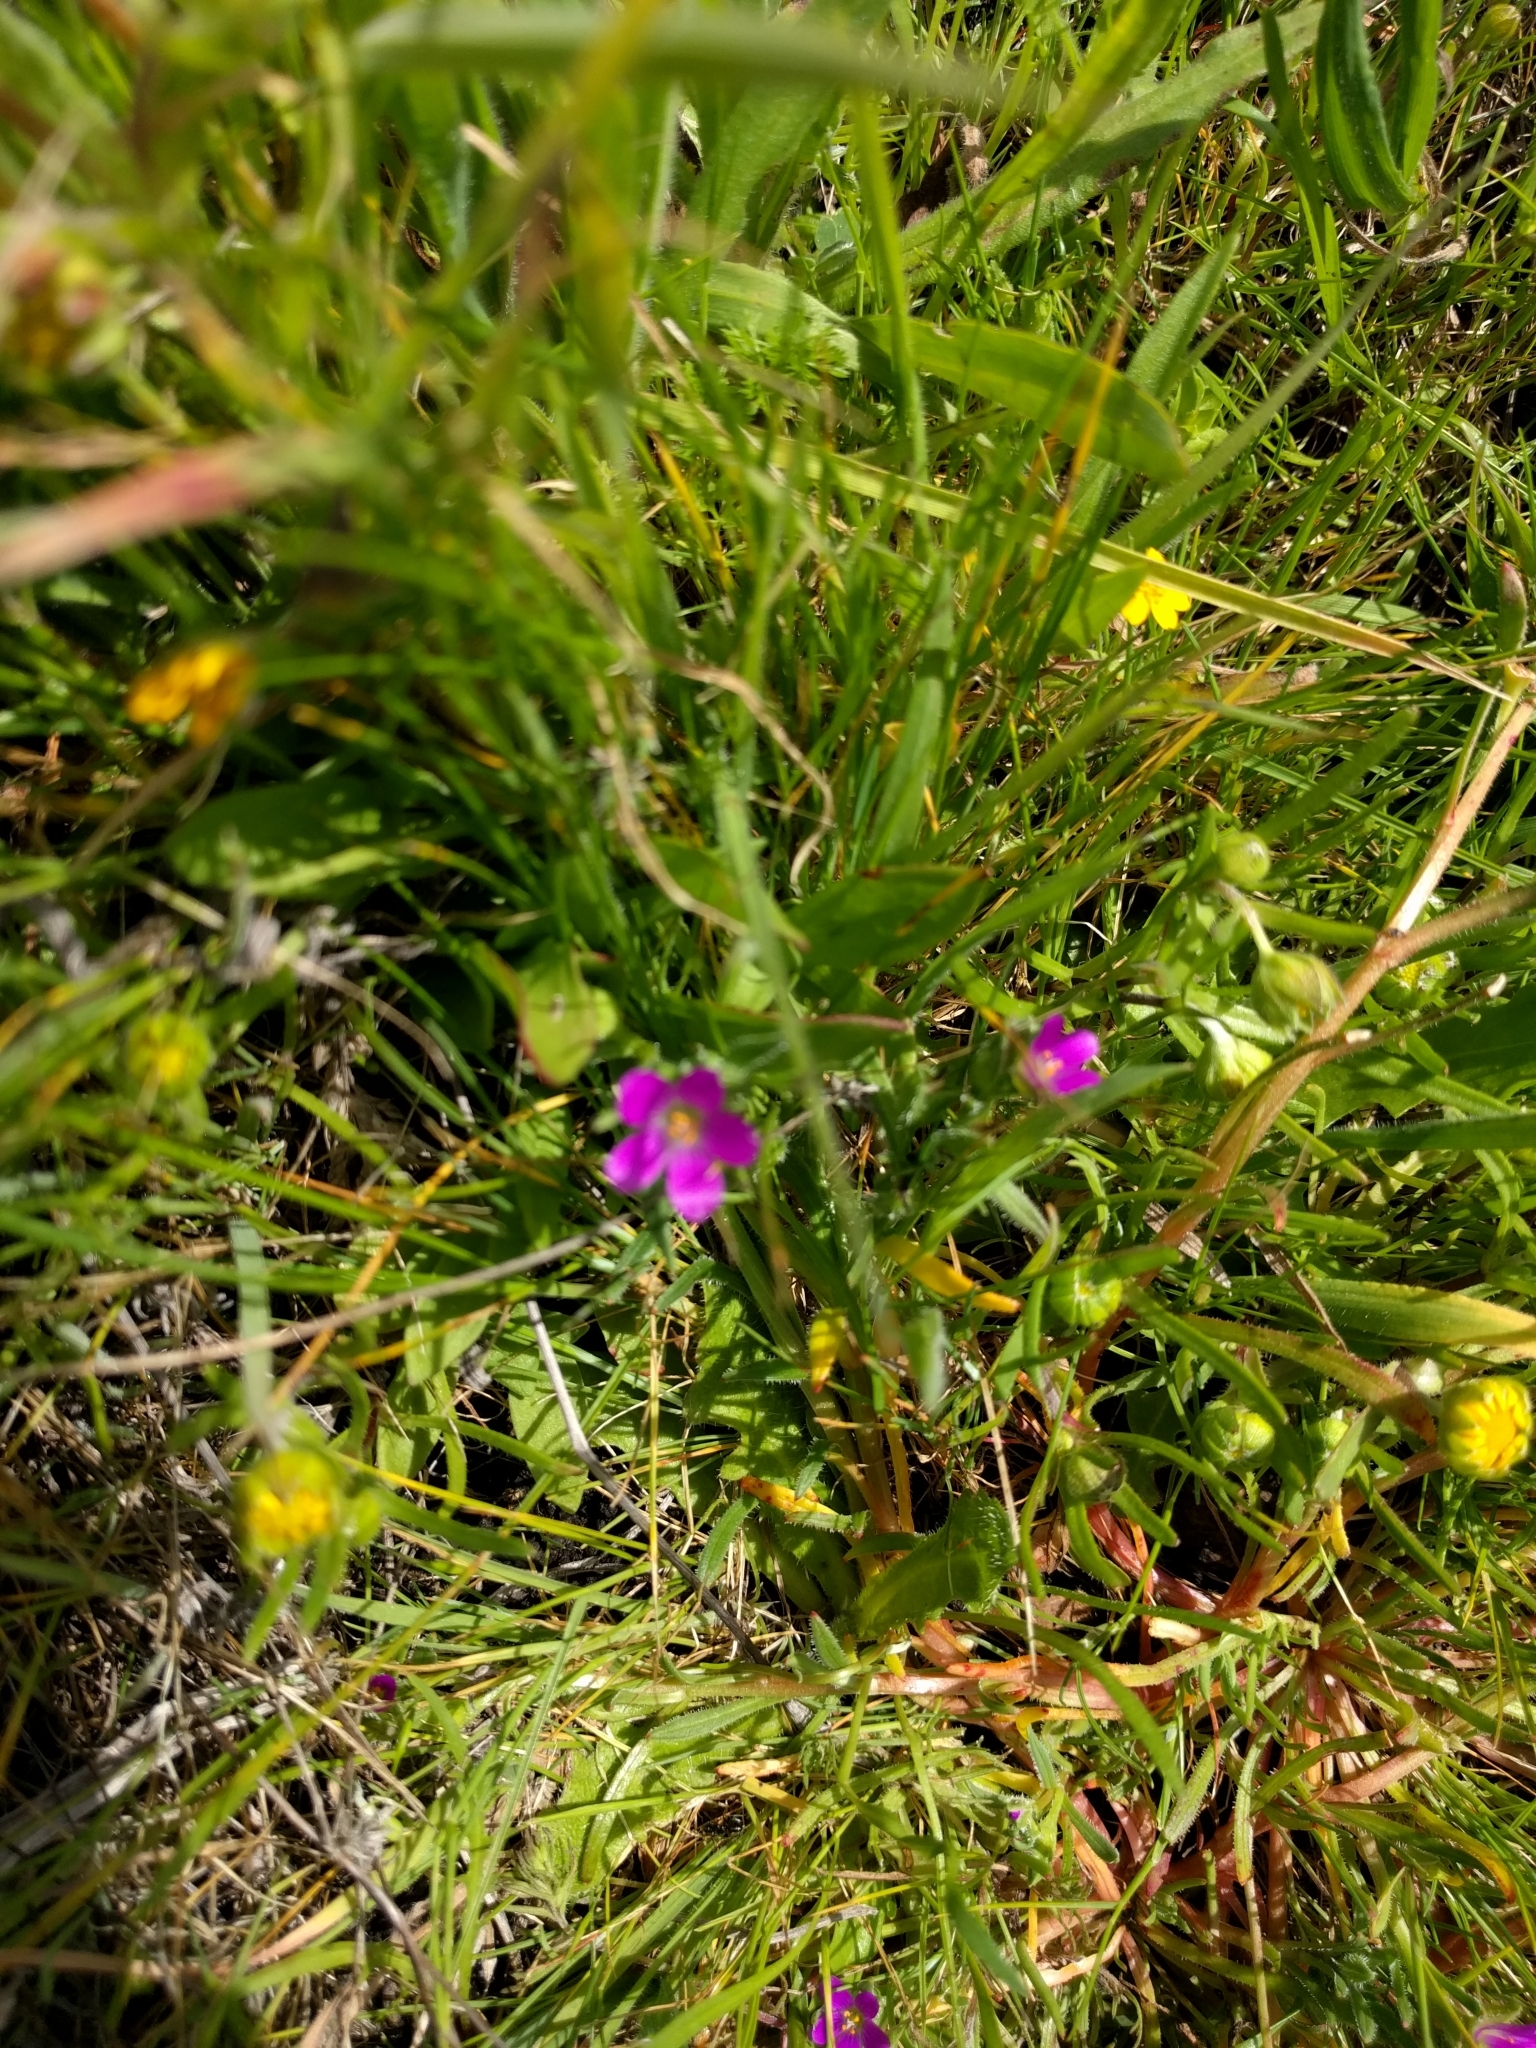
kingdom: Plantae
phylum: Tracheophyta
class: Magnoliopsida
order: Caryophyllales
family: Montiaceae
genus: Calandrinia
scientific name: Calandrinia menziesii
